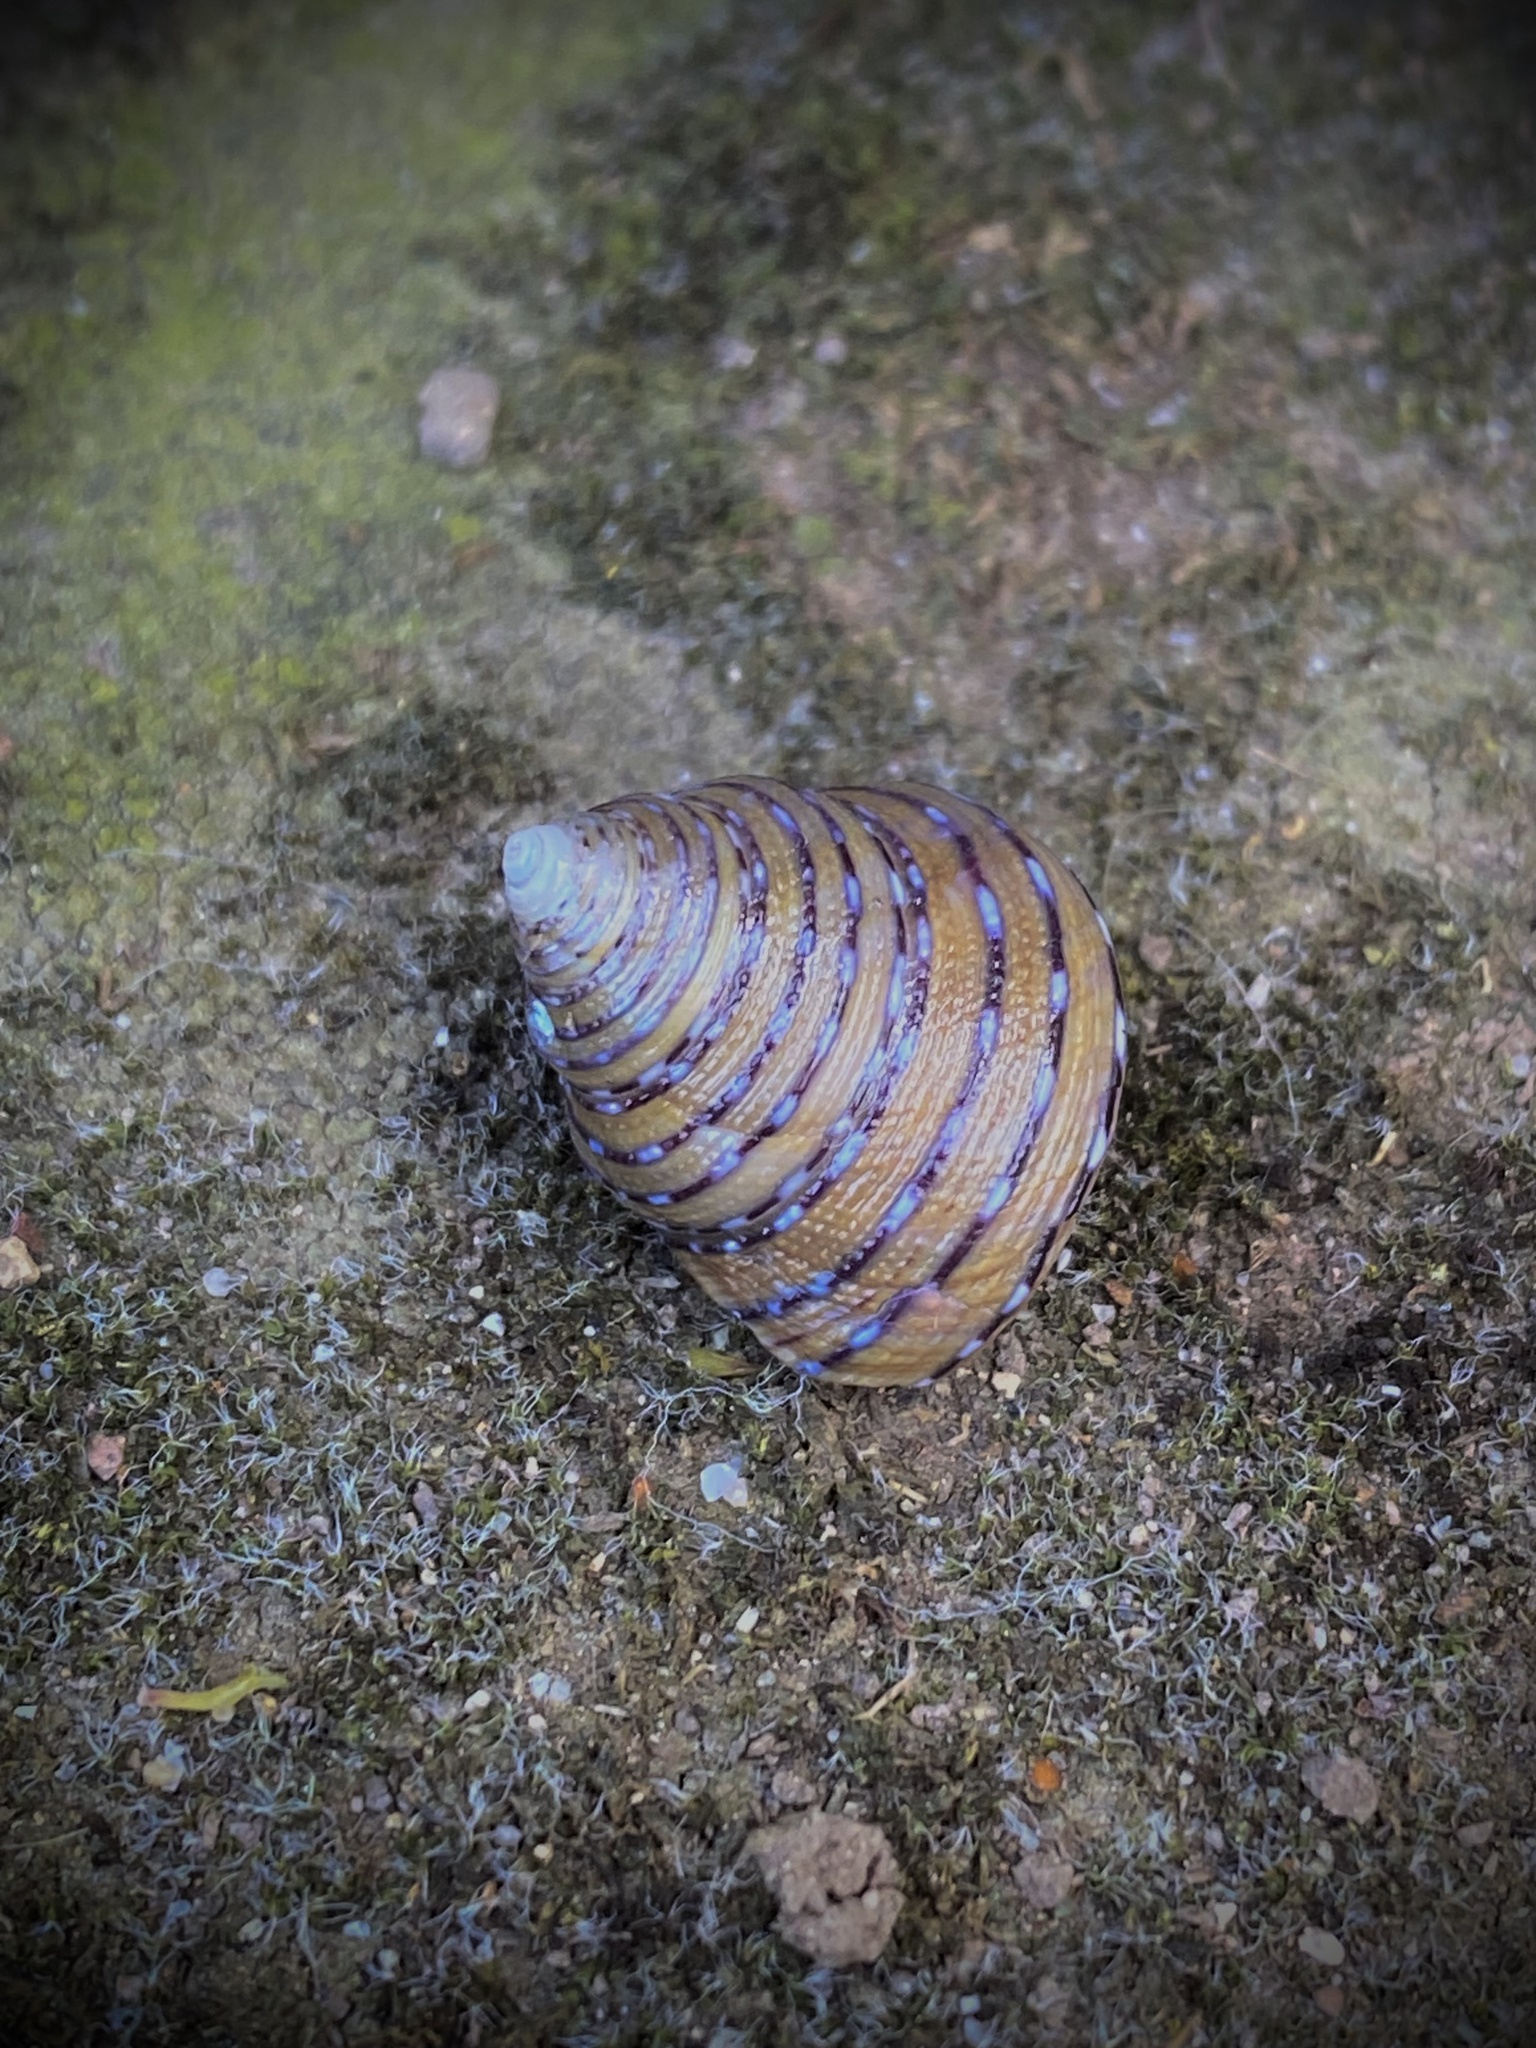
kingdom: Animalia
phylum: Mollusca
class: Gastropoda
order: Trochida
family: Calliostomatidae
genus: Calliostoma
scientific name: Calliostoma tricolor
